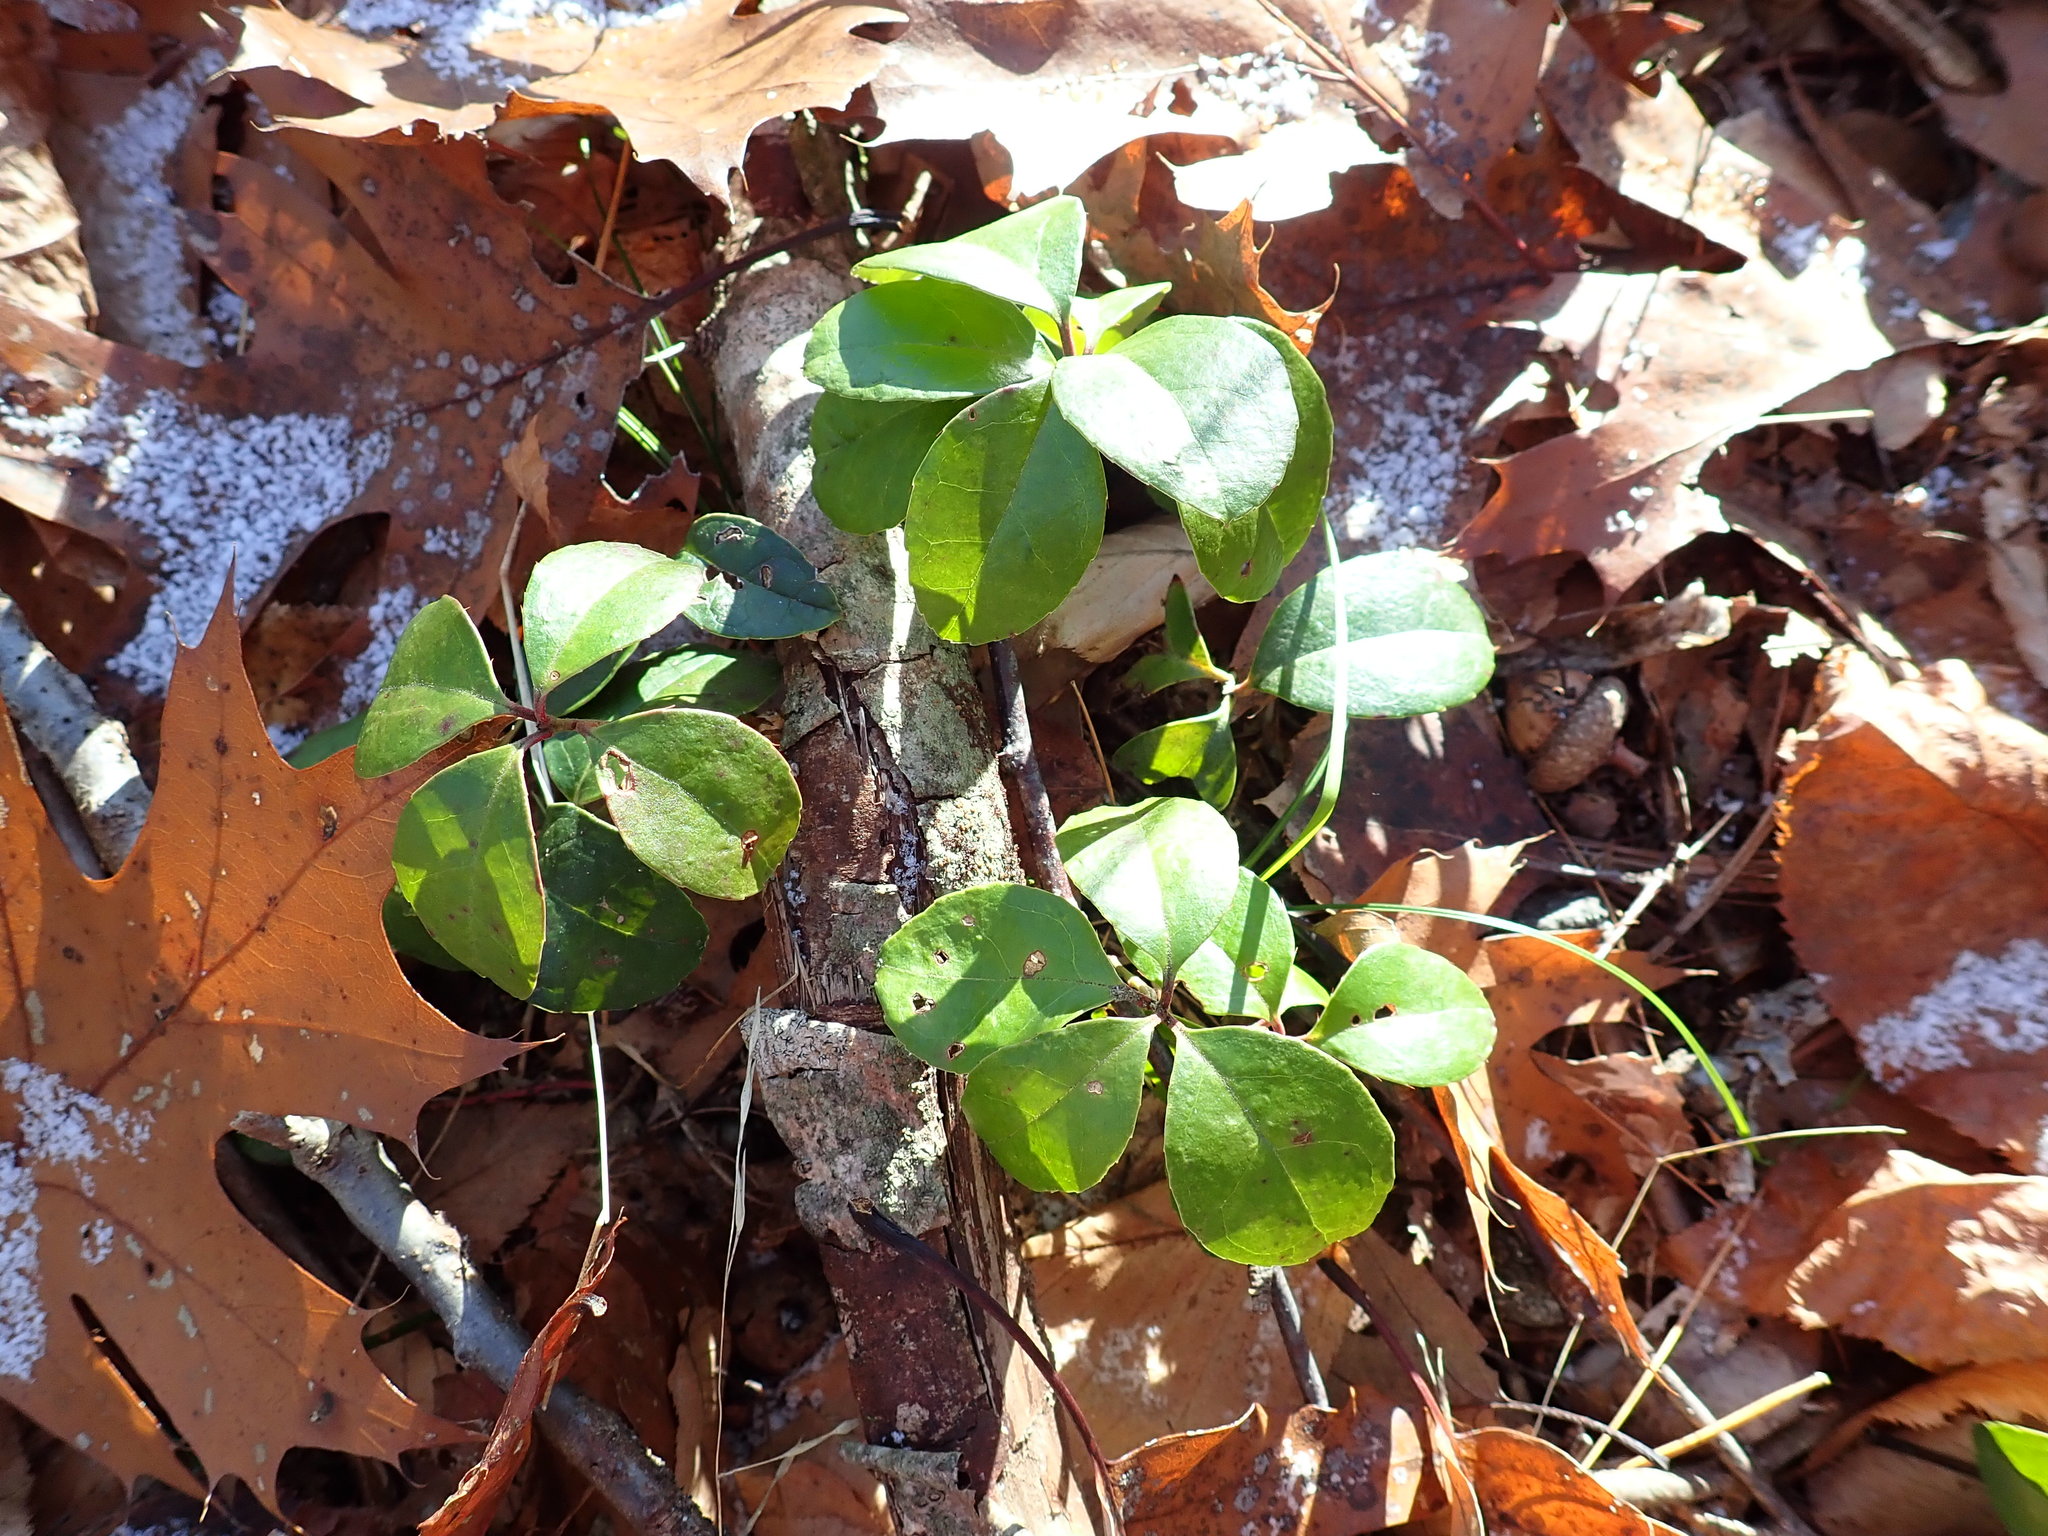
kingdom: Plantae
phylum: Tracheophyta
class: Magnoliopsida
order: Ericales
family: Ericaceae
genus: Gaultheria
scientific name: Gaultheria procumbens
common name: Checkerberry
